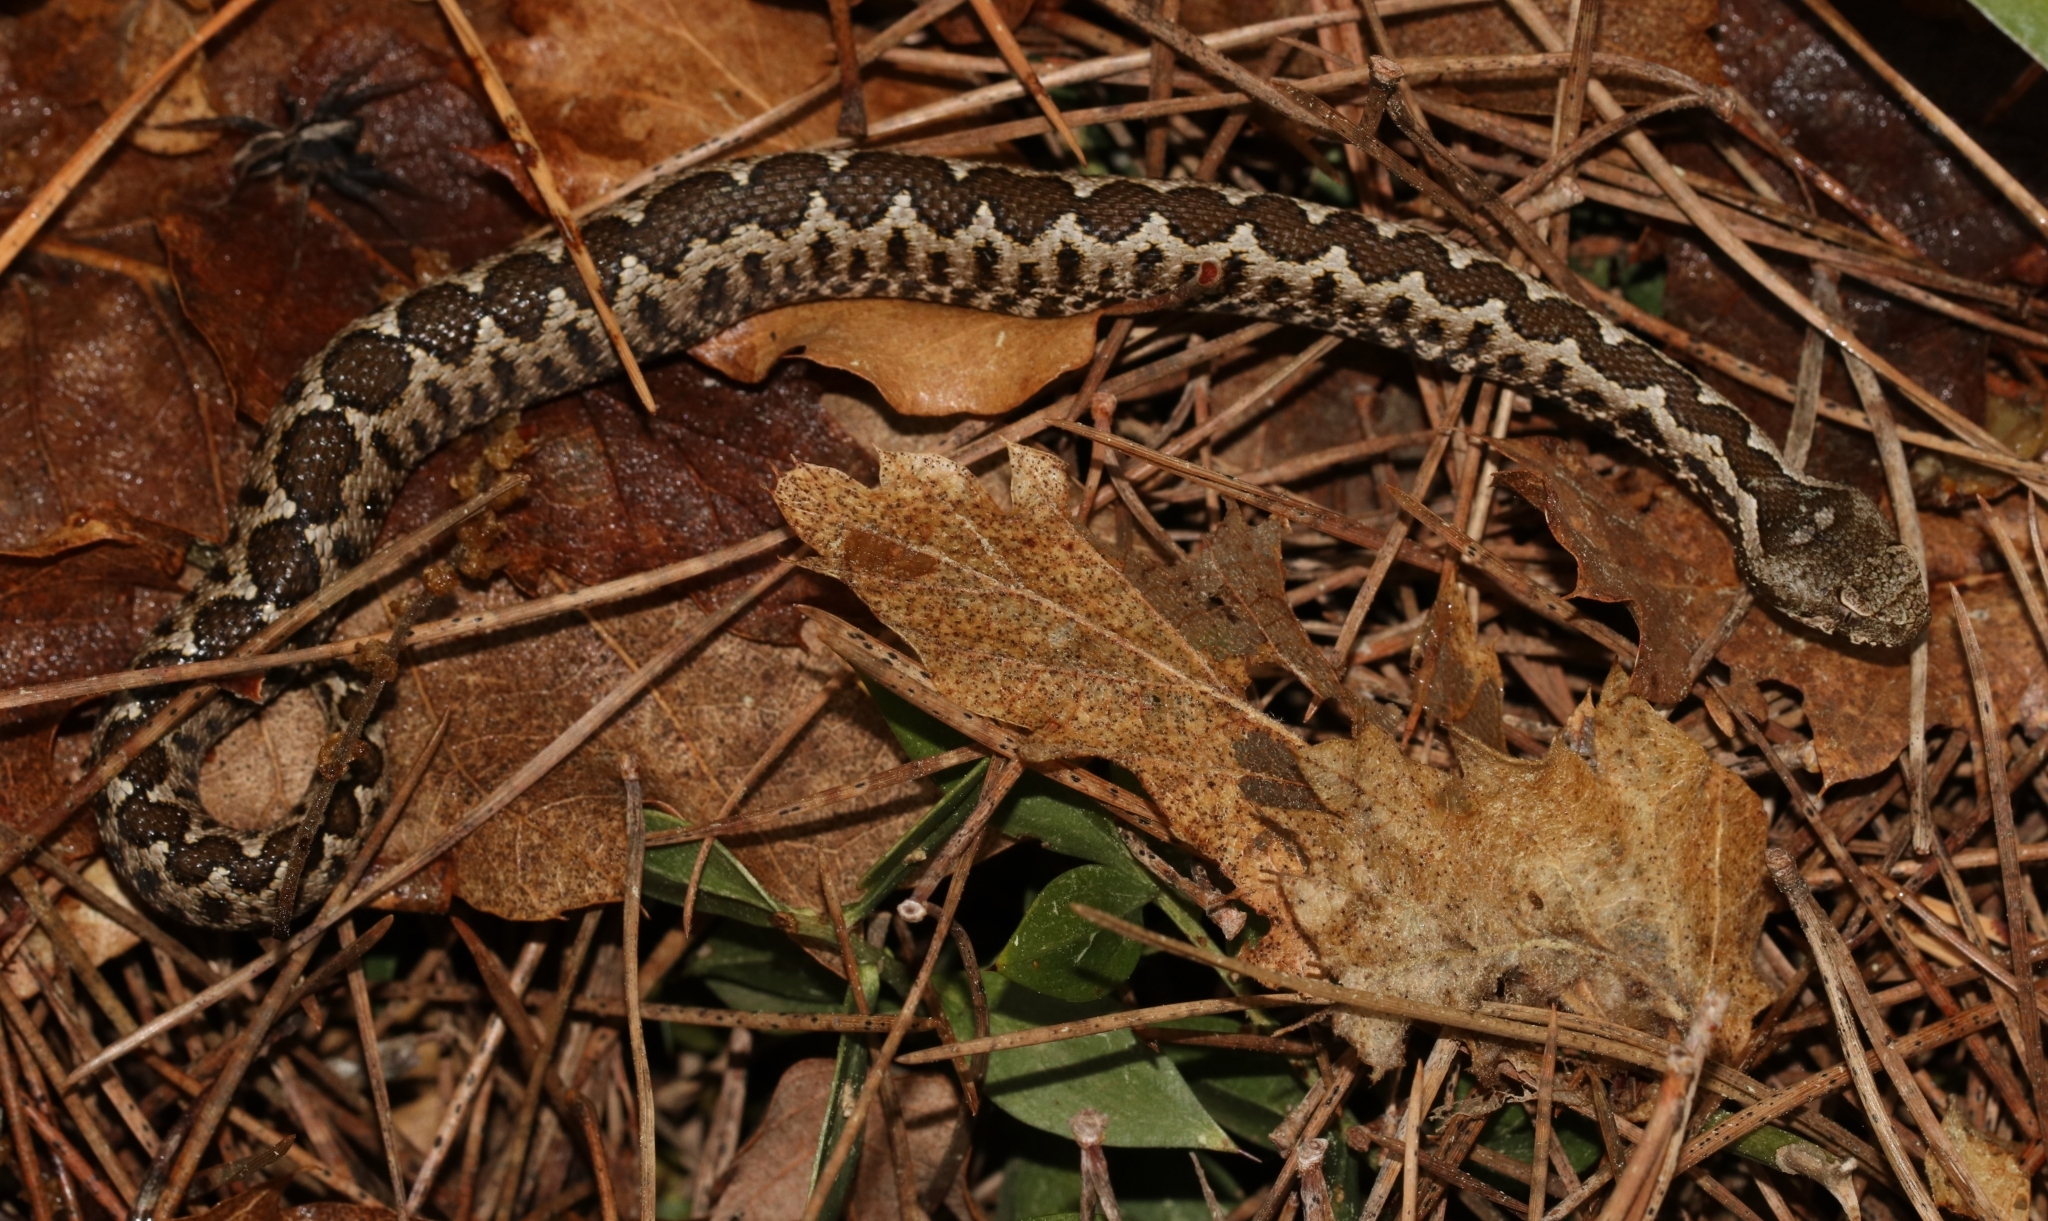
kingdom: Animalia
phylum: Chordata
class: Squamata
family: Viperidae
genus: Vipera
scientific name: Vipera ammodytes
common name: Sand viper
